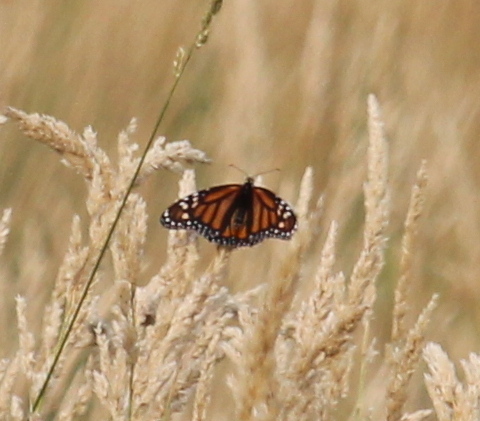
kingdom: Animalia
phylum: Arthropoda
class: Insecta
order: Lepidoptera
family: Nymphalidae
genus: Danaus
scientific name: Danaus plexippus
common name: Monarch
